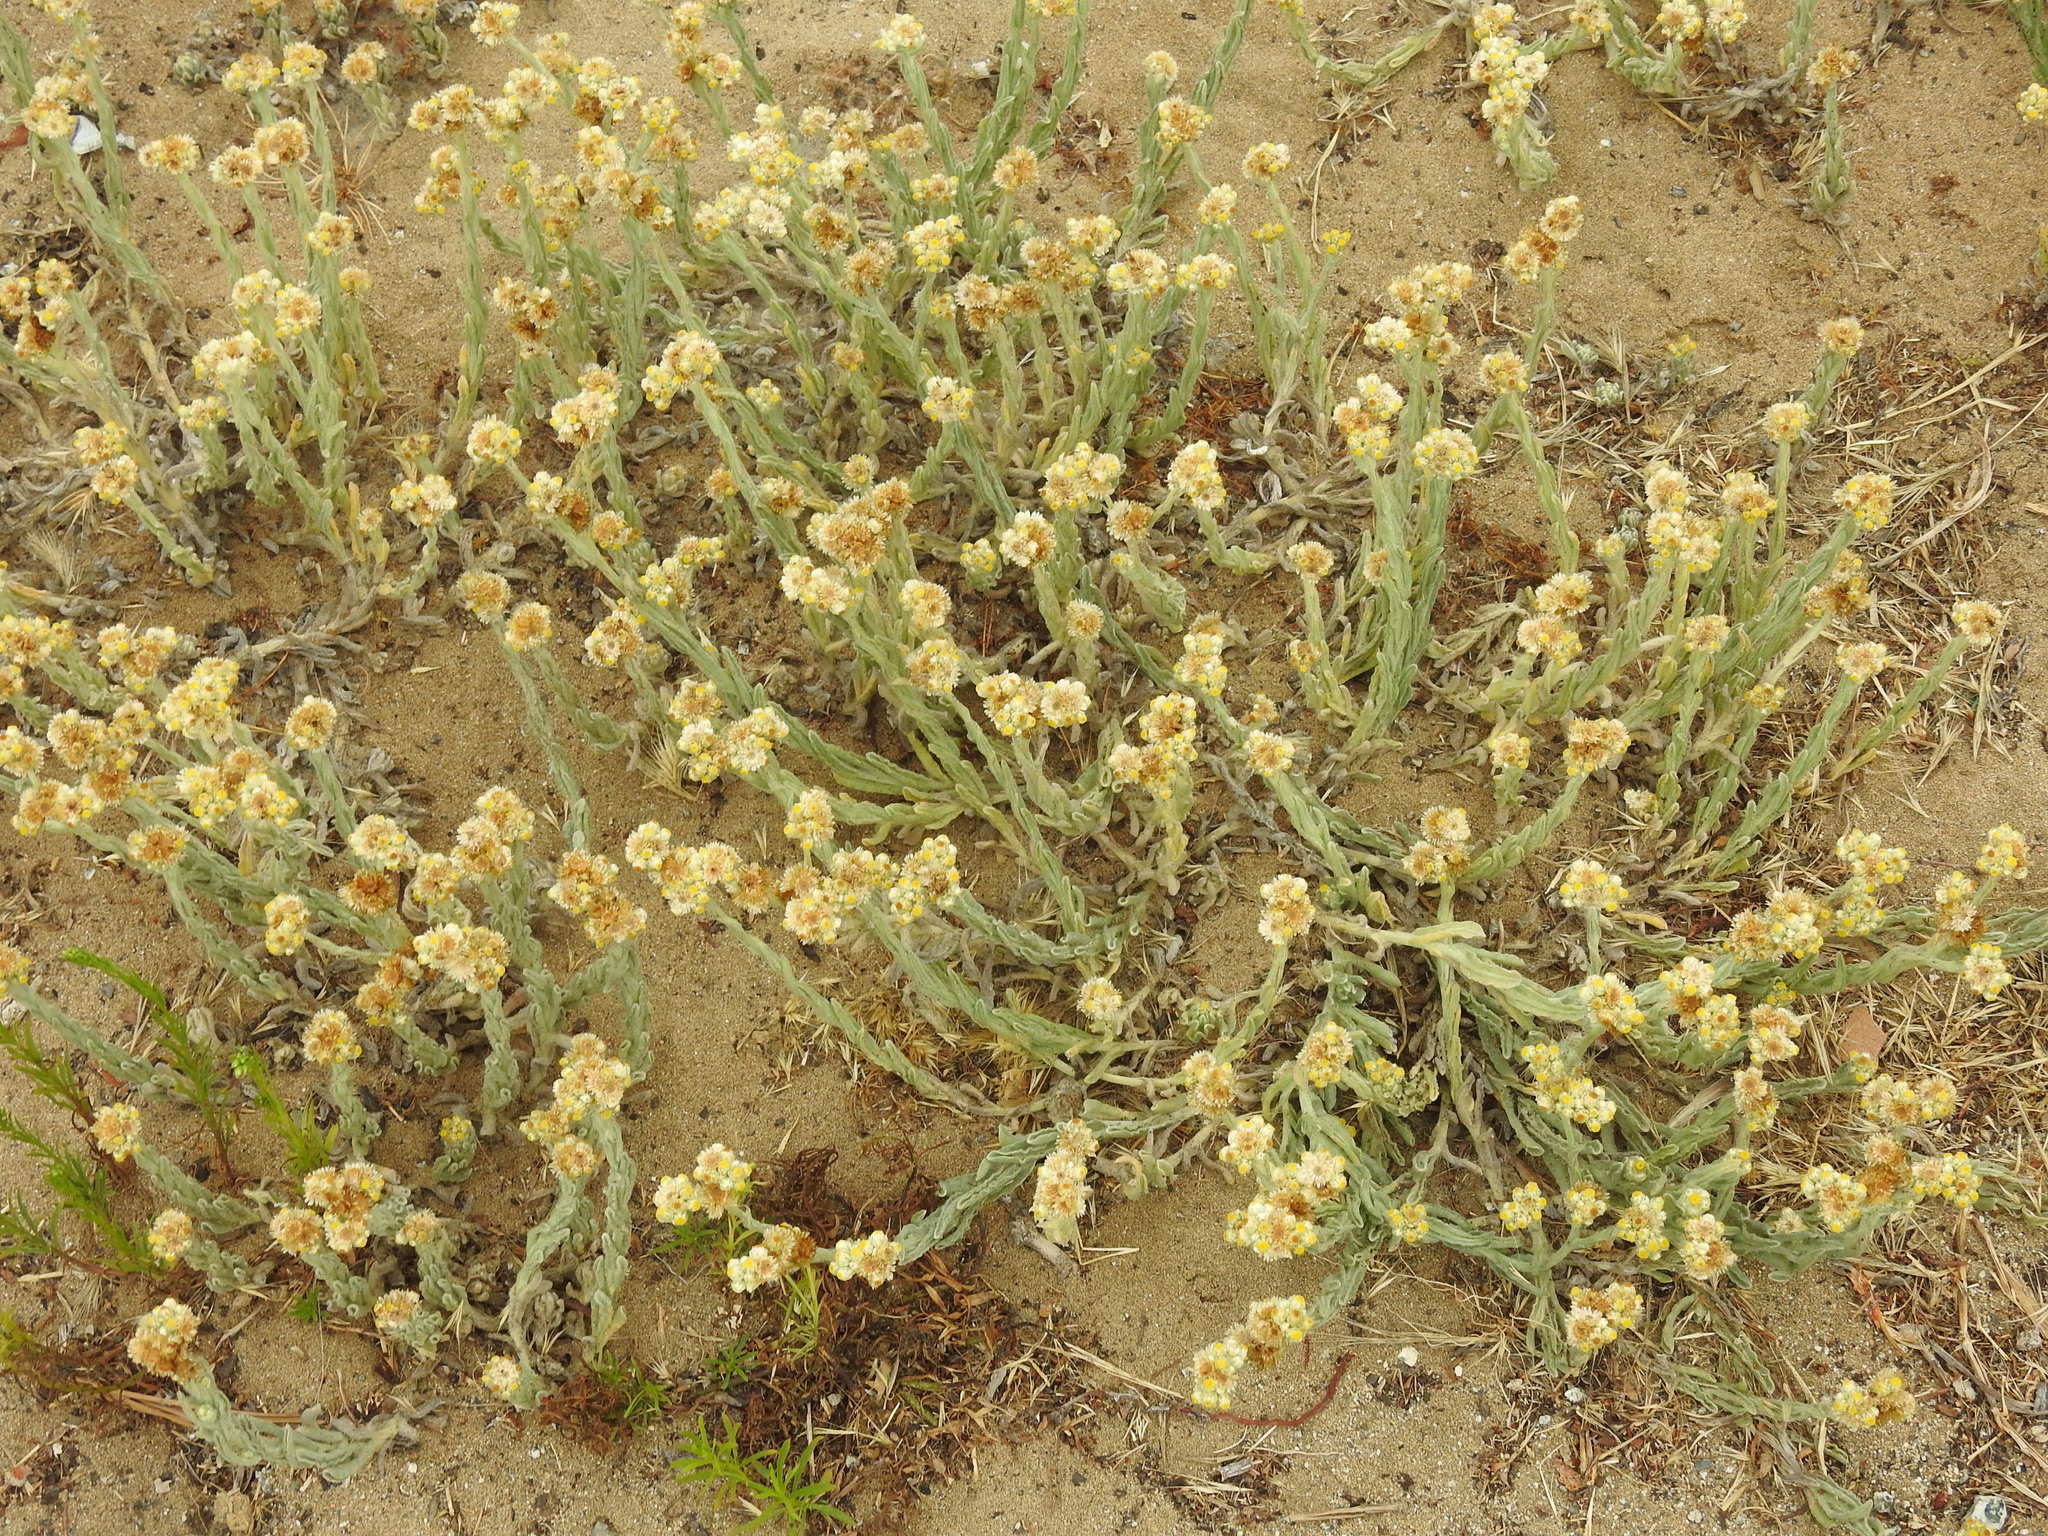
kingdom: Plantae
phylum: Tracheophyta
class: Magnoliopsida
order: Asterales
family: Asteraceae
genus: Pseudognaphalium
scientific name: Pseudognaphalium stramineum
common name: Cotton-batting-plant
